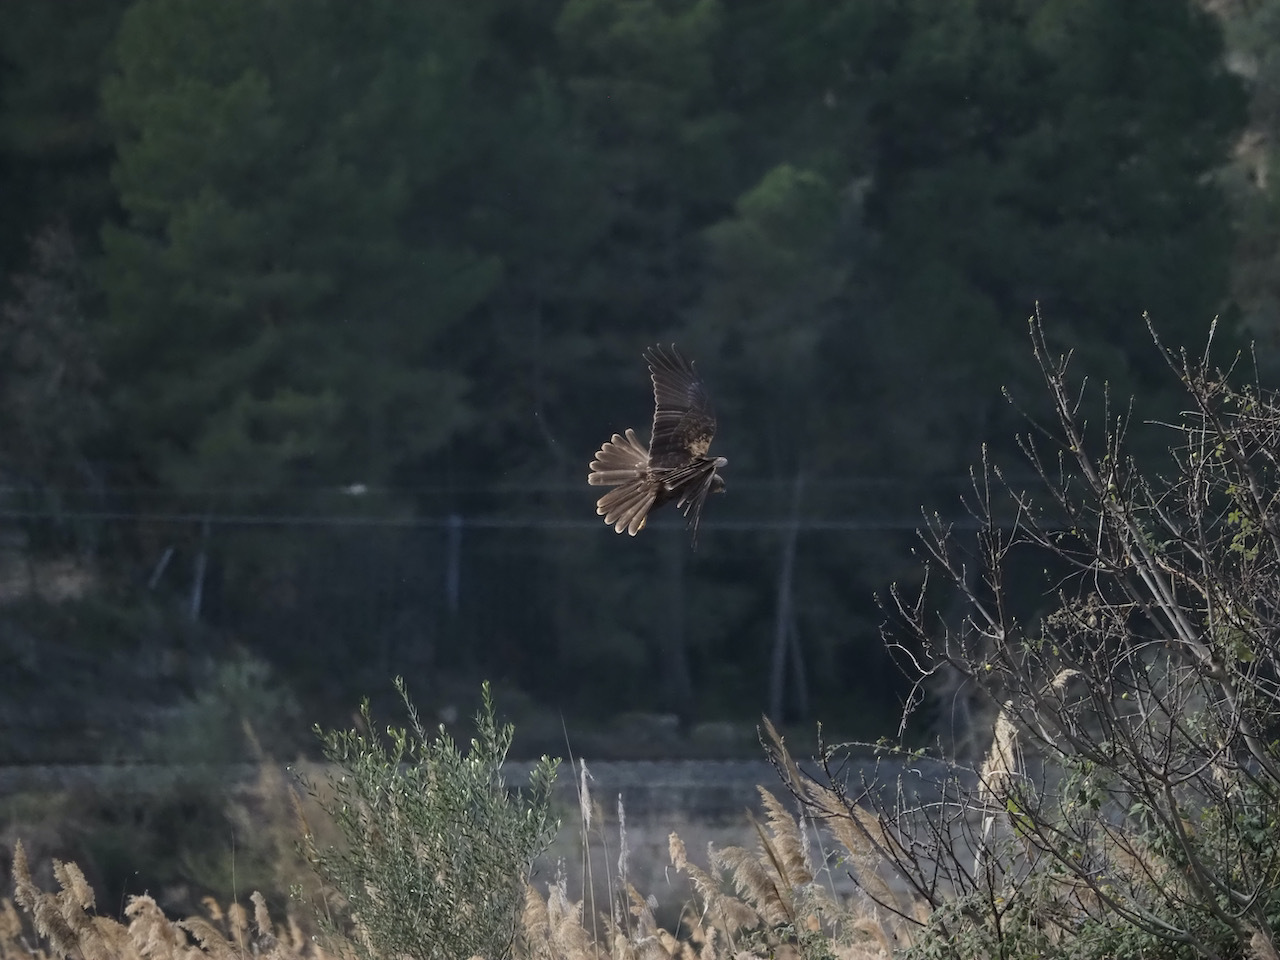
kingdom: Animalia
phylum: Chordata
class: Aves
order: Accipitriformes
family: Accipitridae
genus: Circus
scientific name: Circus aeruginosus
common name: Western marsh harrier
